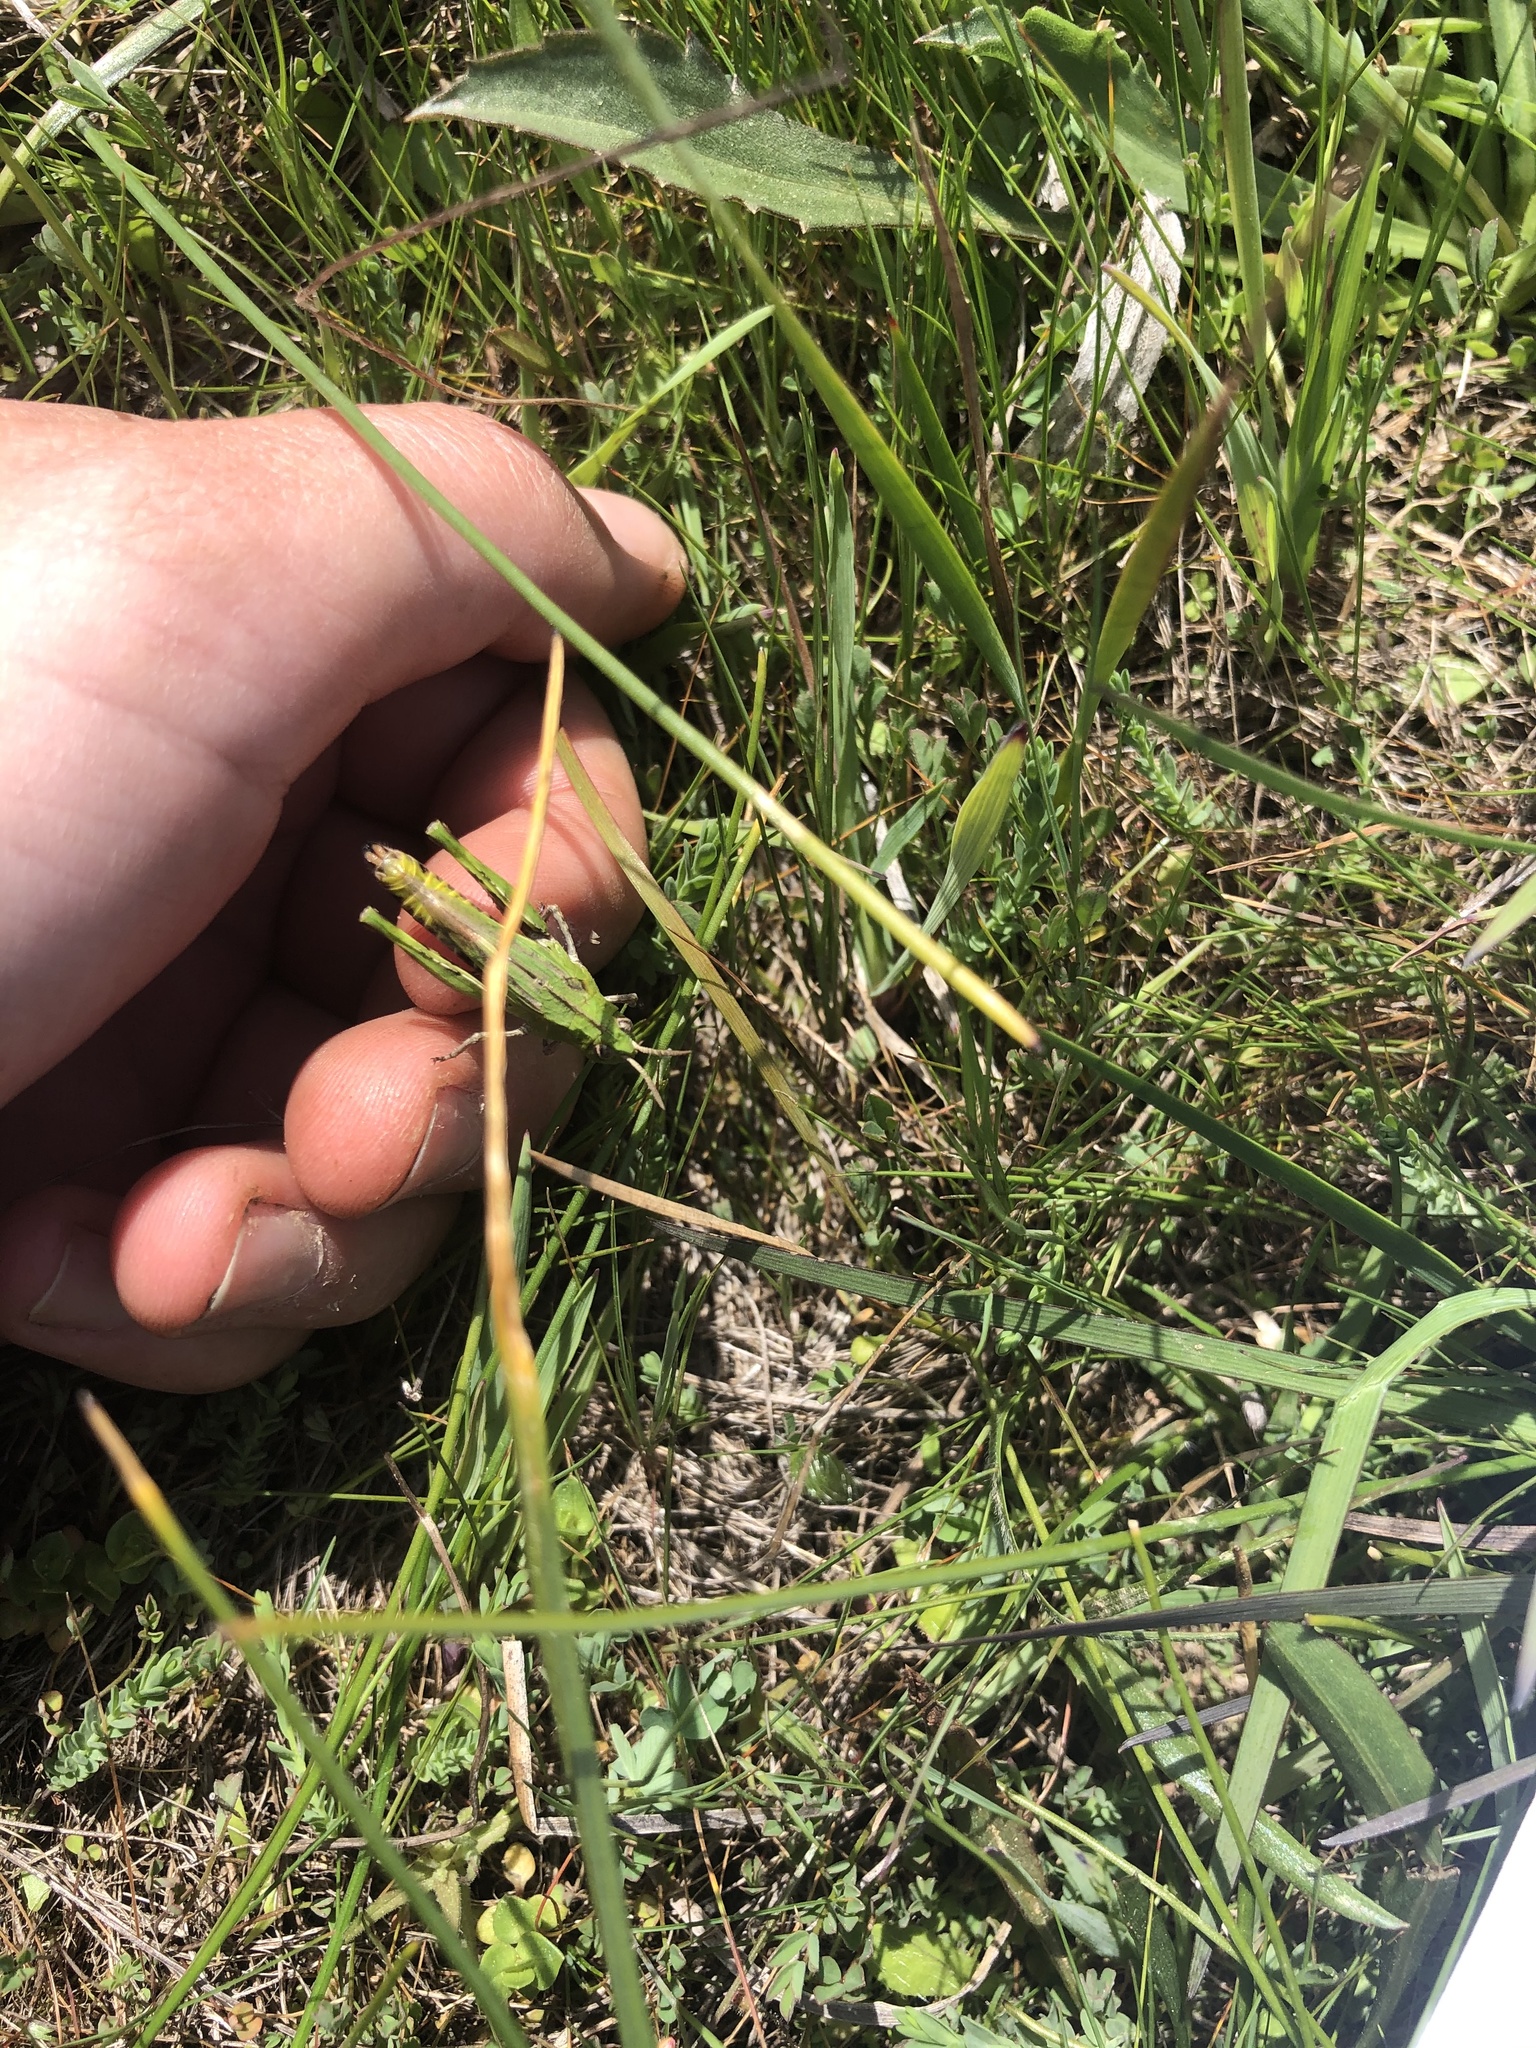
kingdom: Animalia
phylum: Arthropoda
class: Insecta
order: Orthoptera
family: Acrididae
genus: Chimarocephala
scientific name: Chimarocephala pacifica
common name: Painted meadow grasshopper
